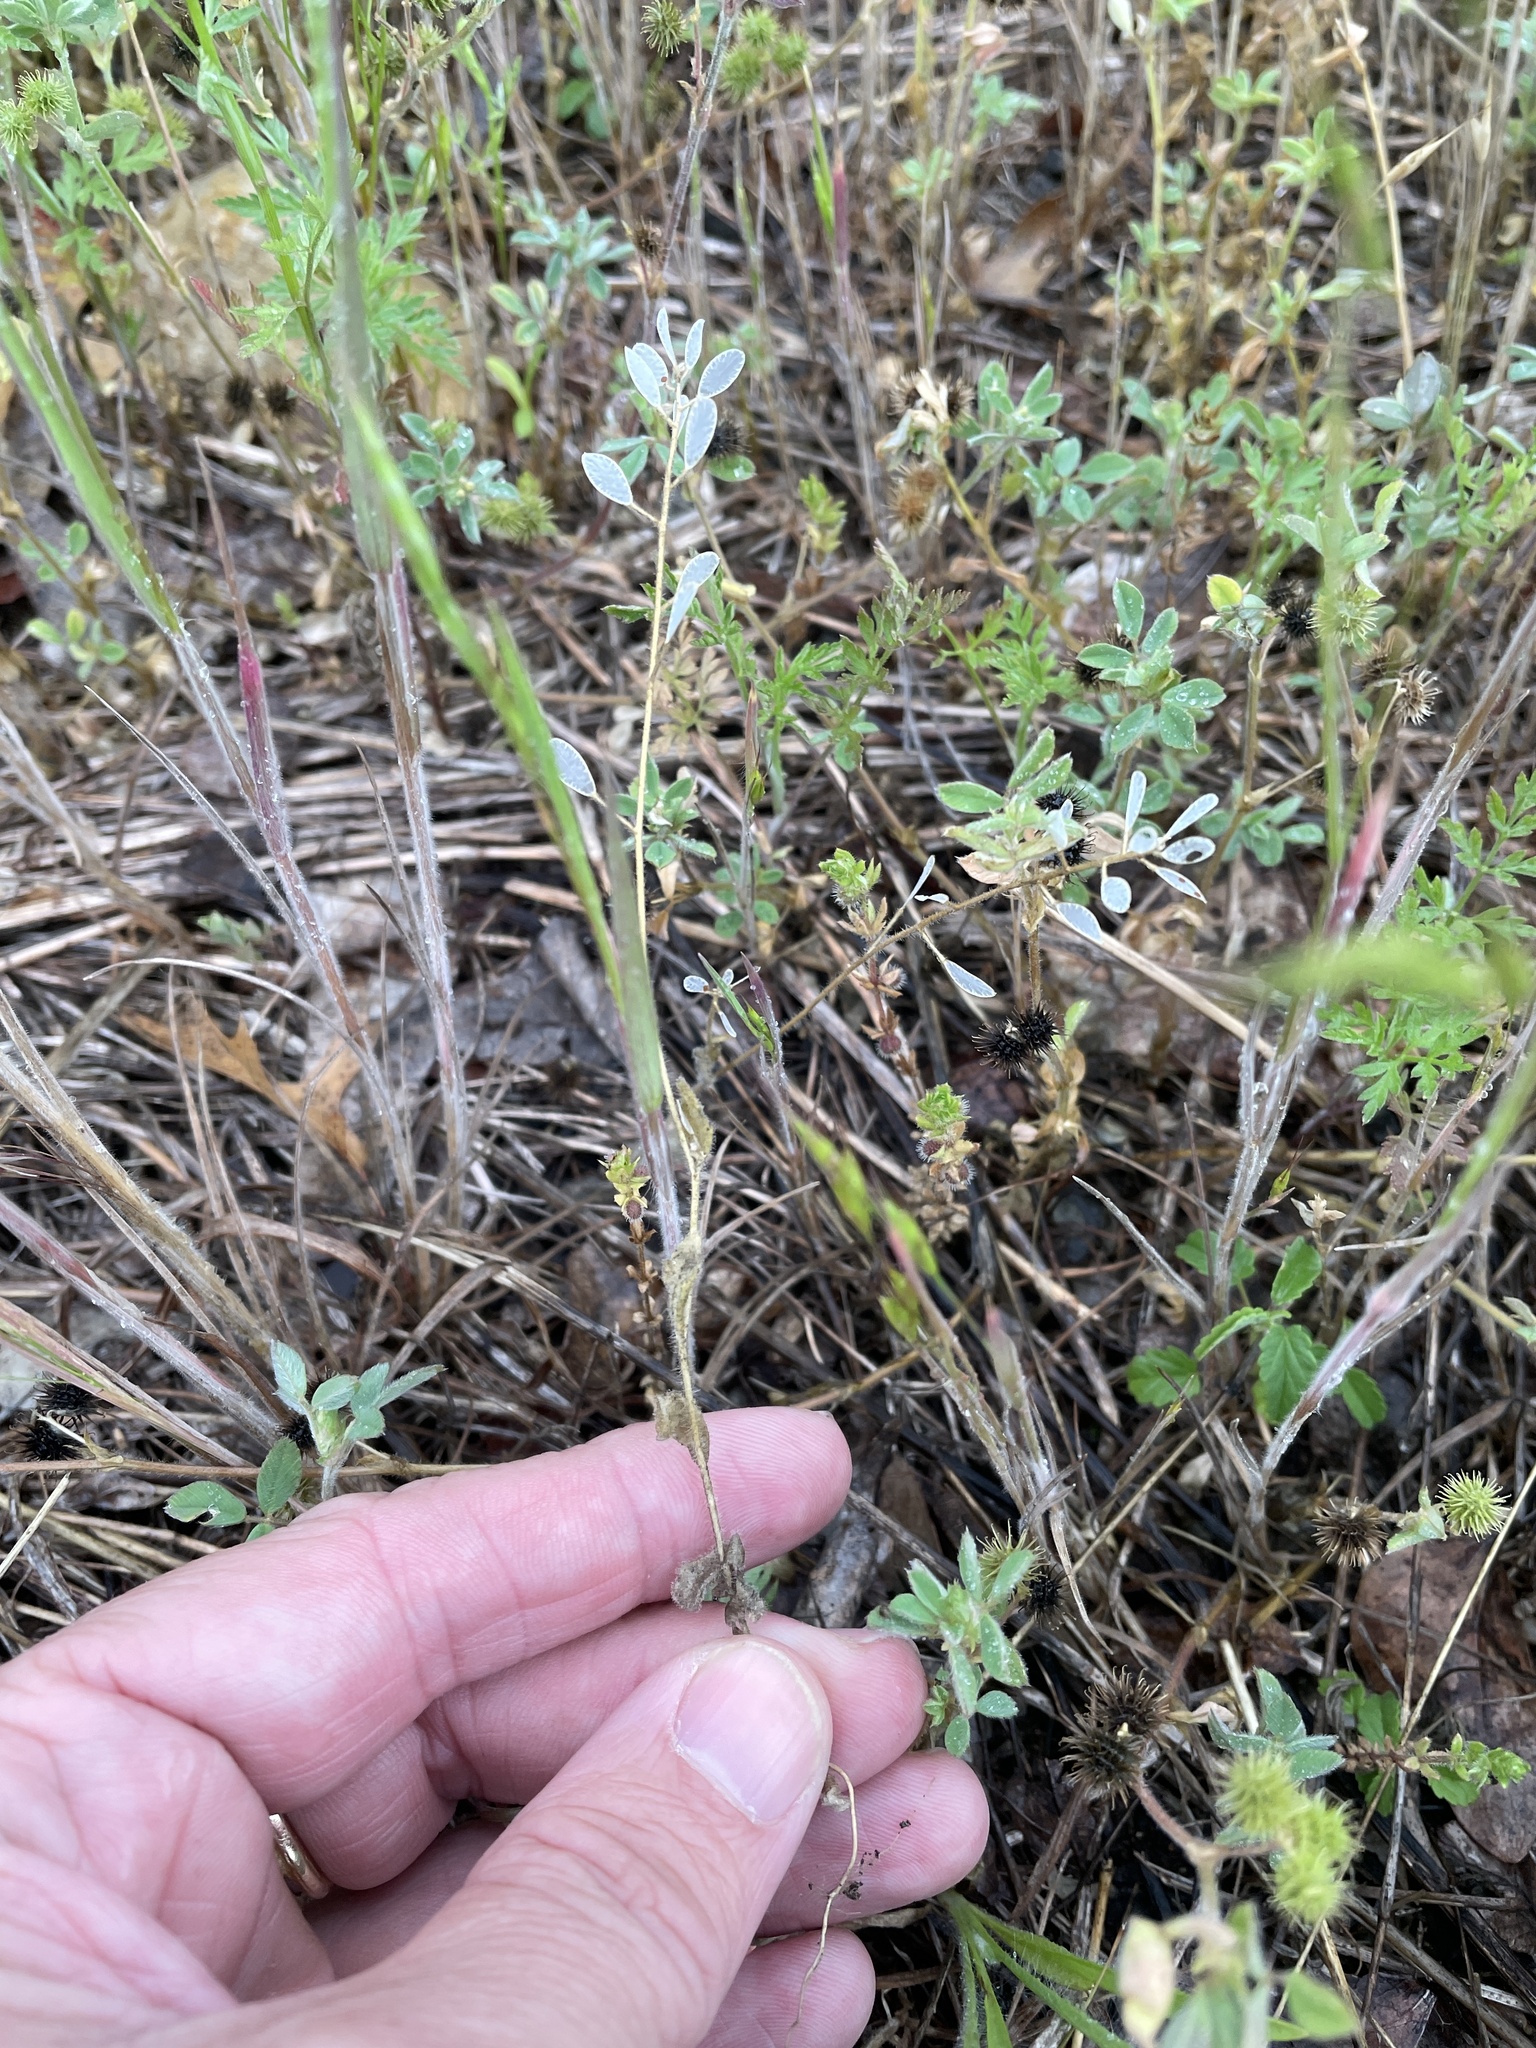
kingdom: Plantae
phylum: Tracheophyta
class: Magnoliopsida
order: Brassicales
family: Brassicaceae
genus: Tomostima
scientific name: Tomostima platycarpa
